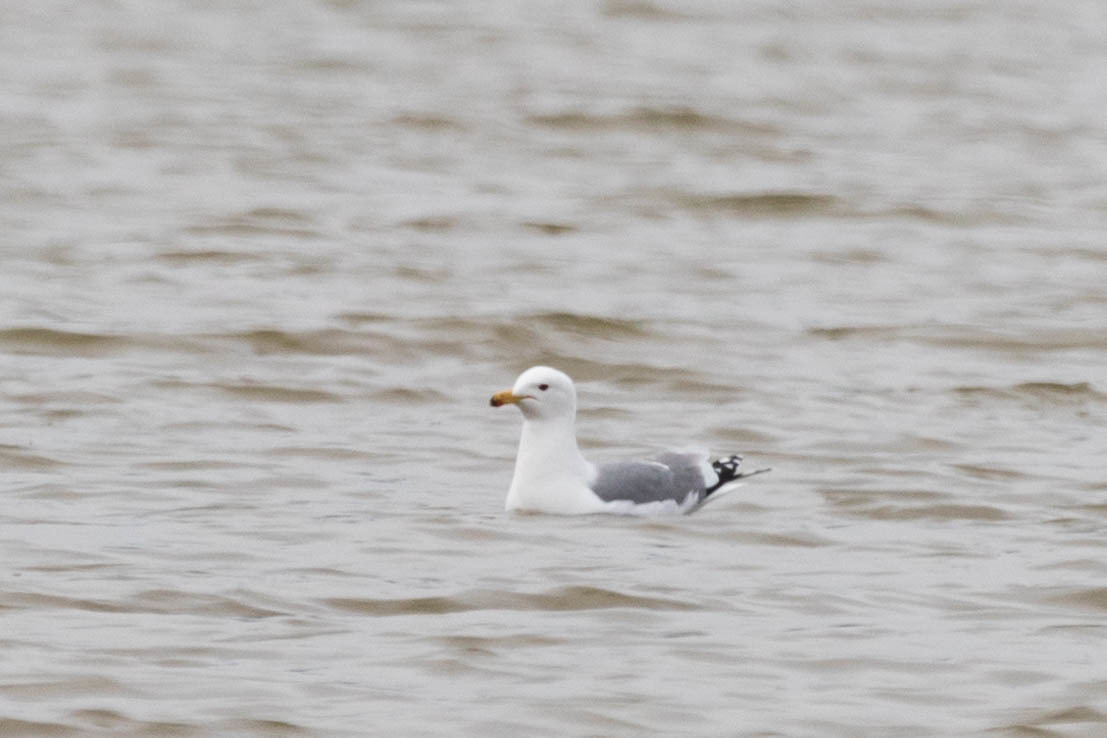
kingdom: Animalia
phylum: Chordata
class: Aves
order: Charadriiformes
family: Laridae
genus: Larus
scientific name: Larus californicus
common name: California gull
